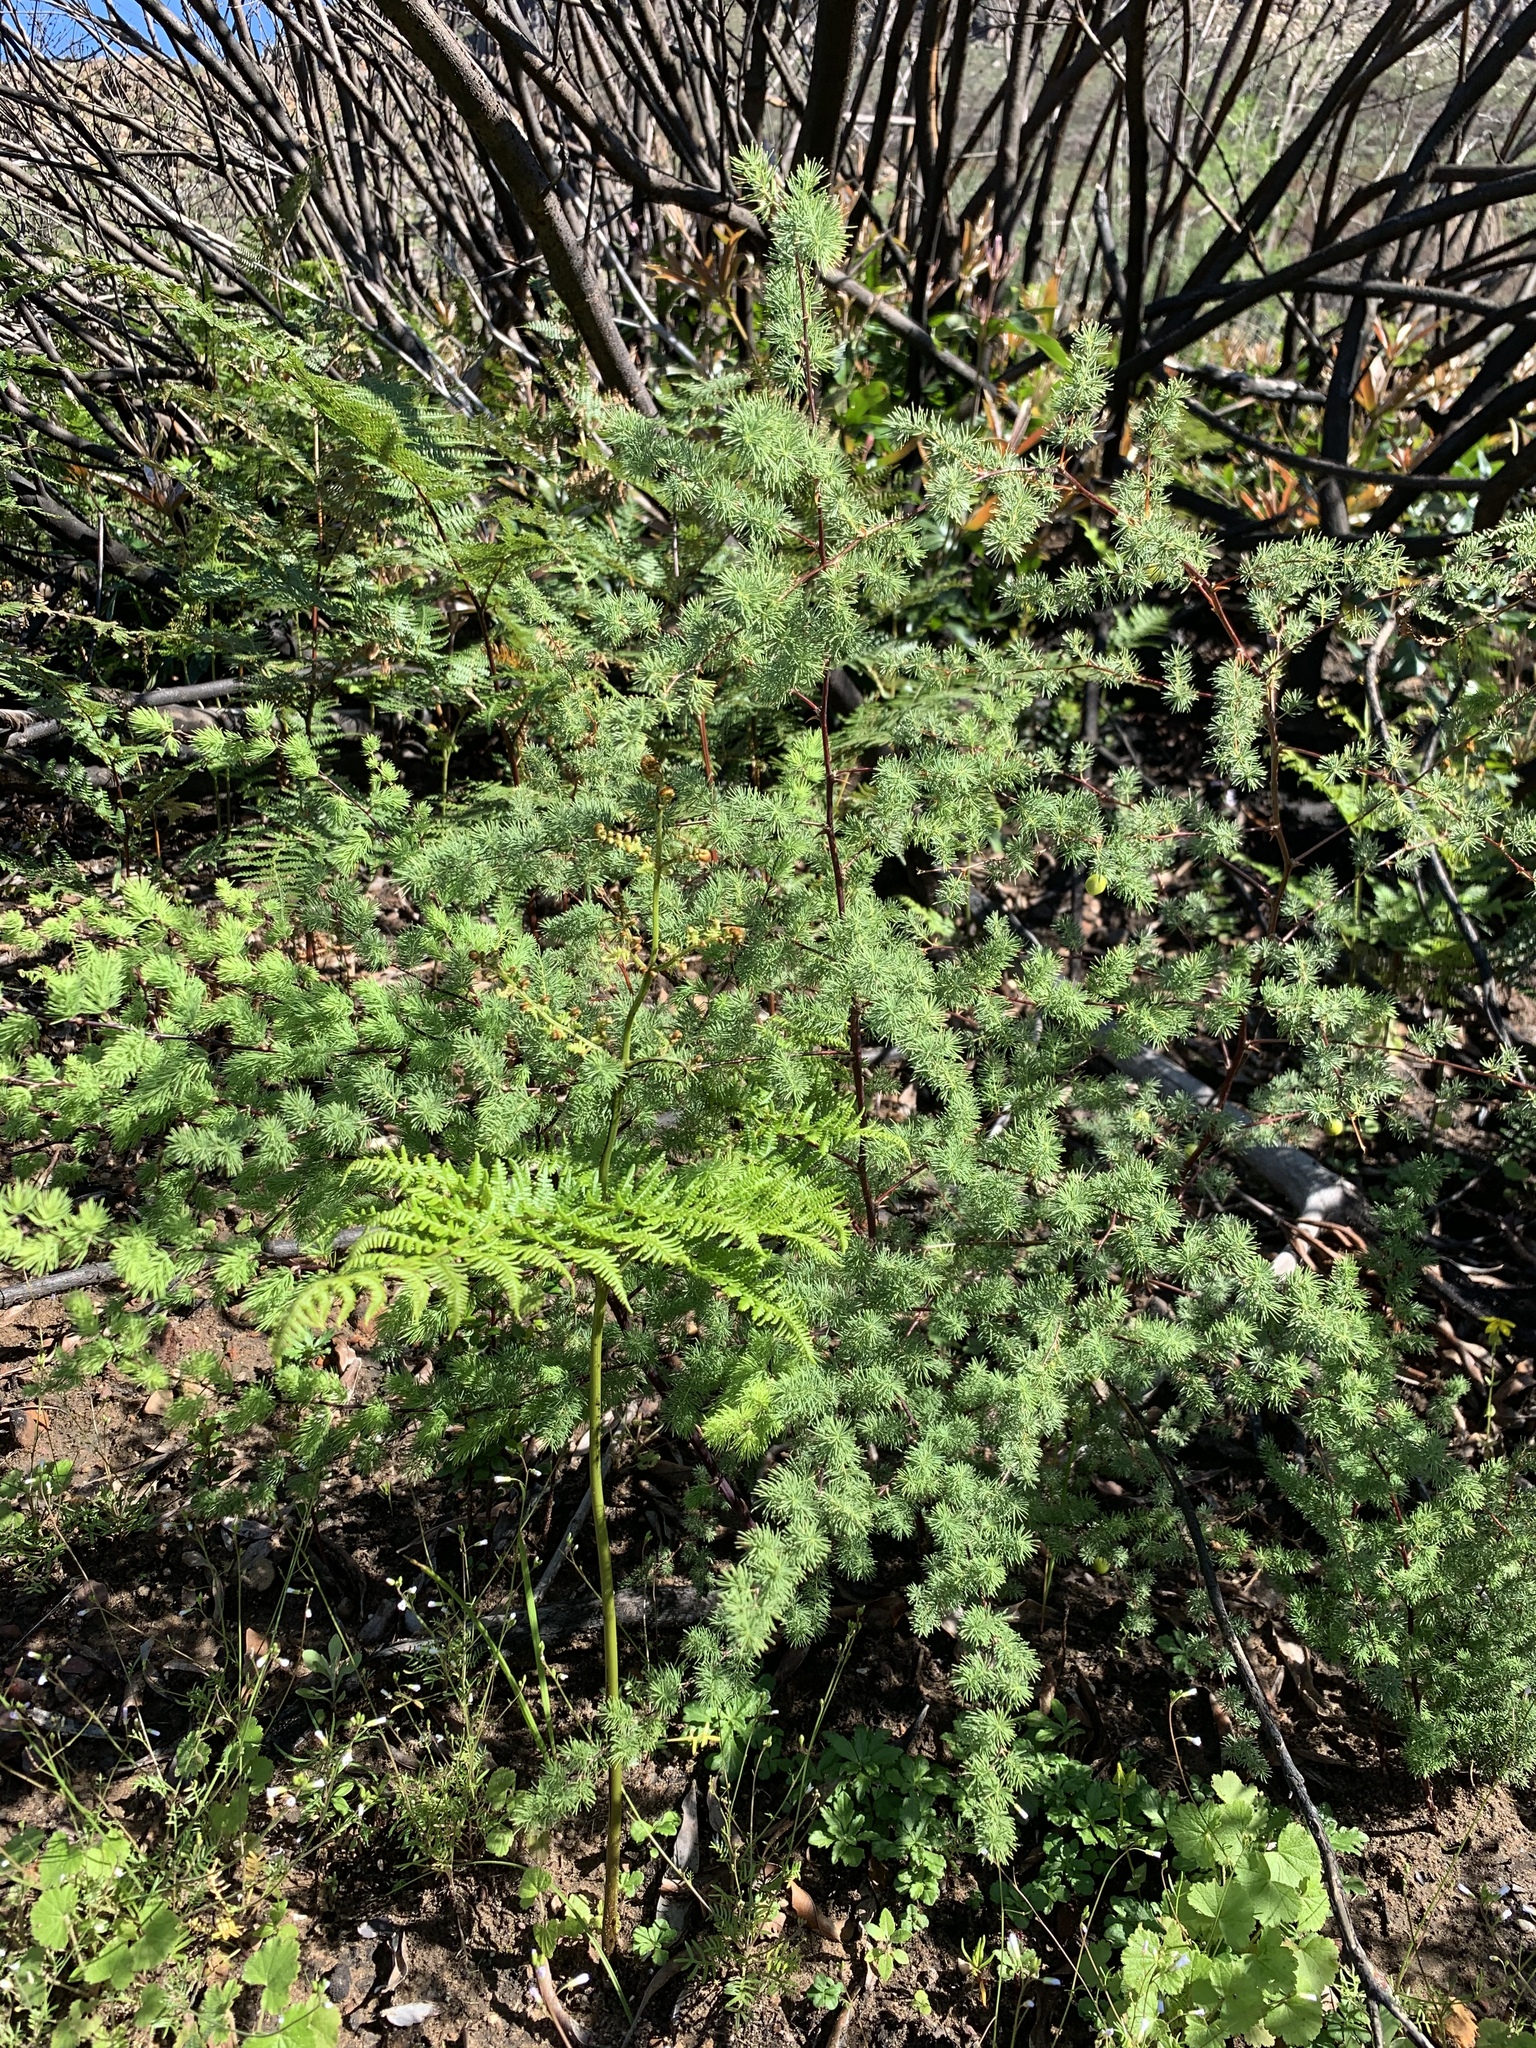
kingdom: Plantae
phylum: Tracheophyta
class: Liliopsida
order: Asparagales
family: Asparagaceae
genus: Asparagus
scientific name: Asparagus rubicundus
